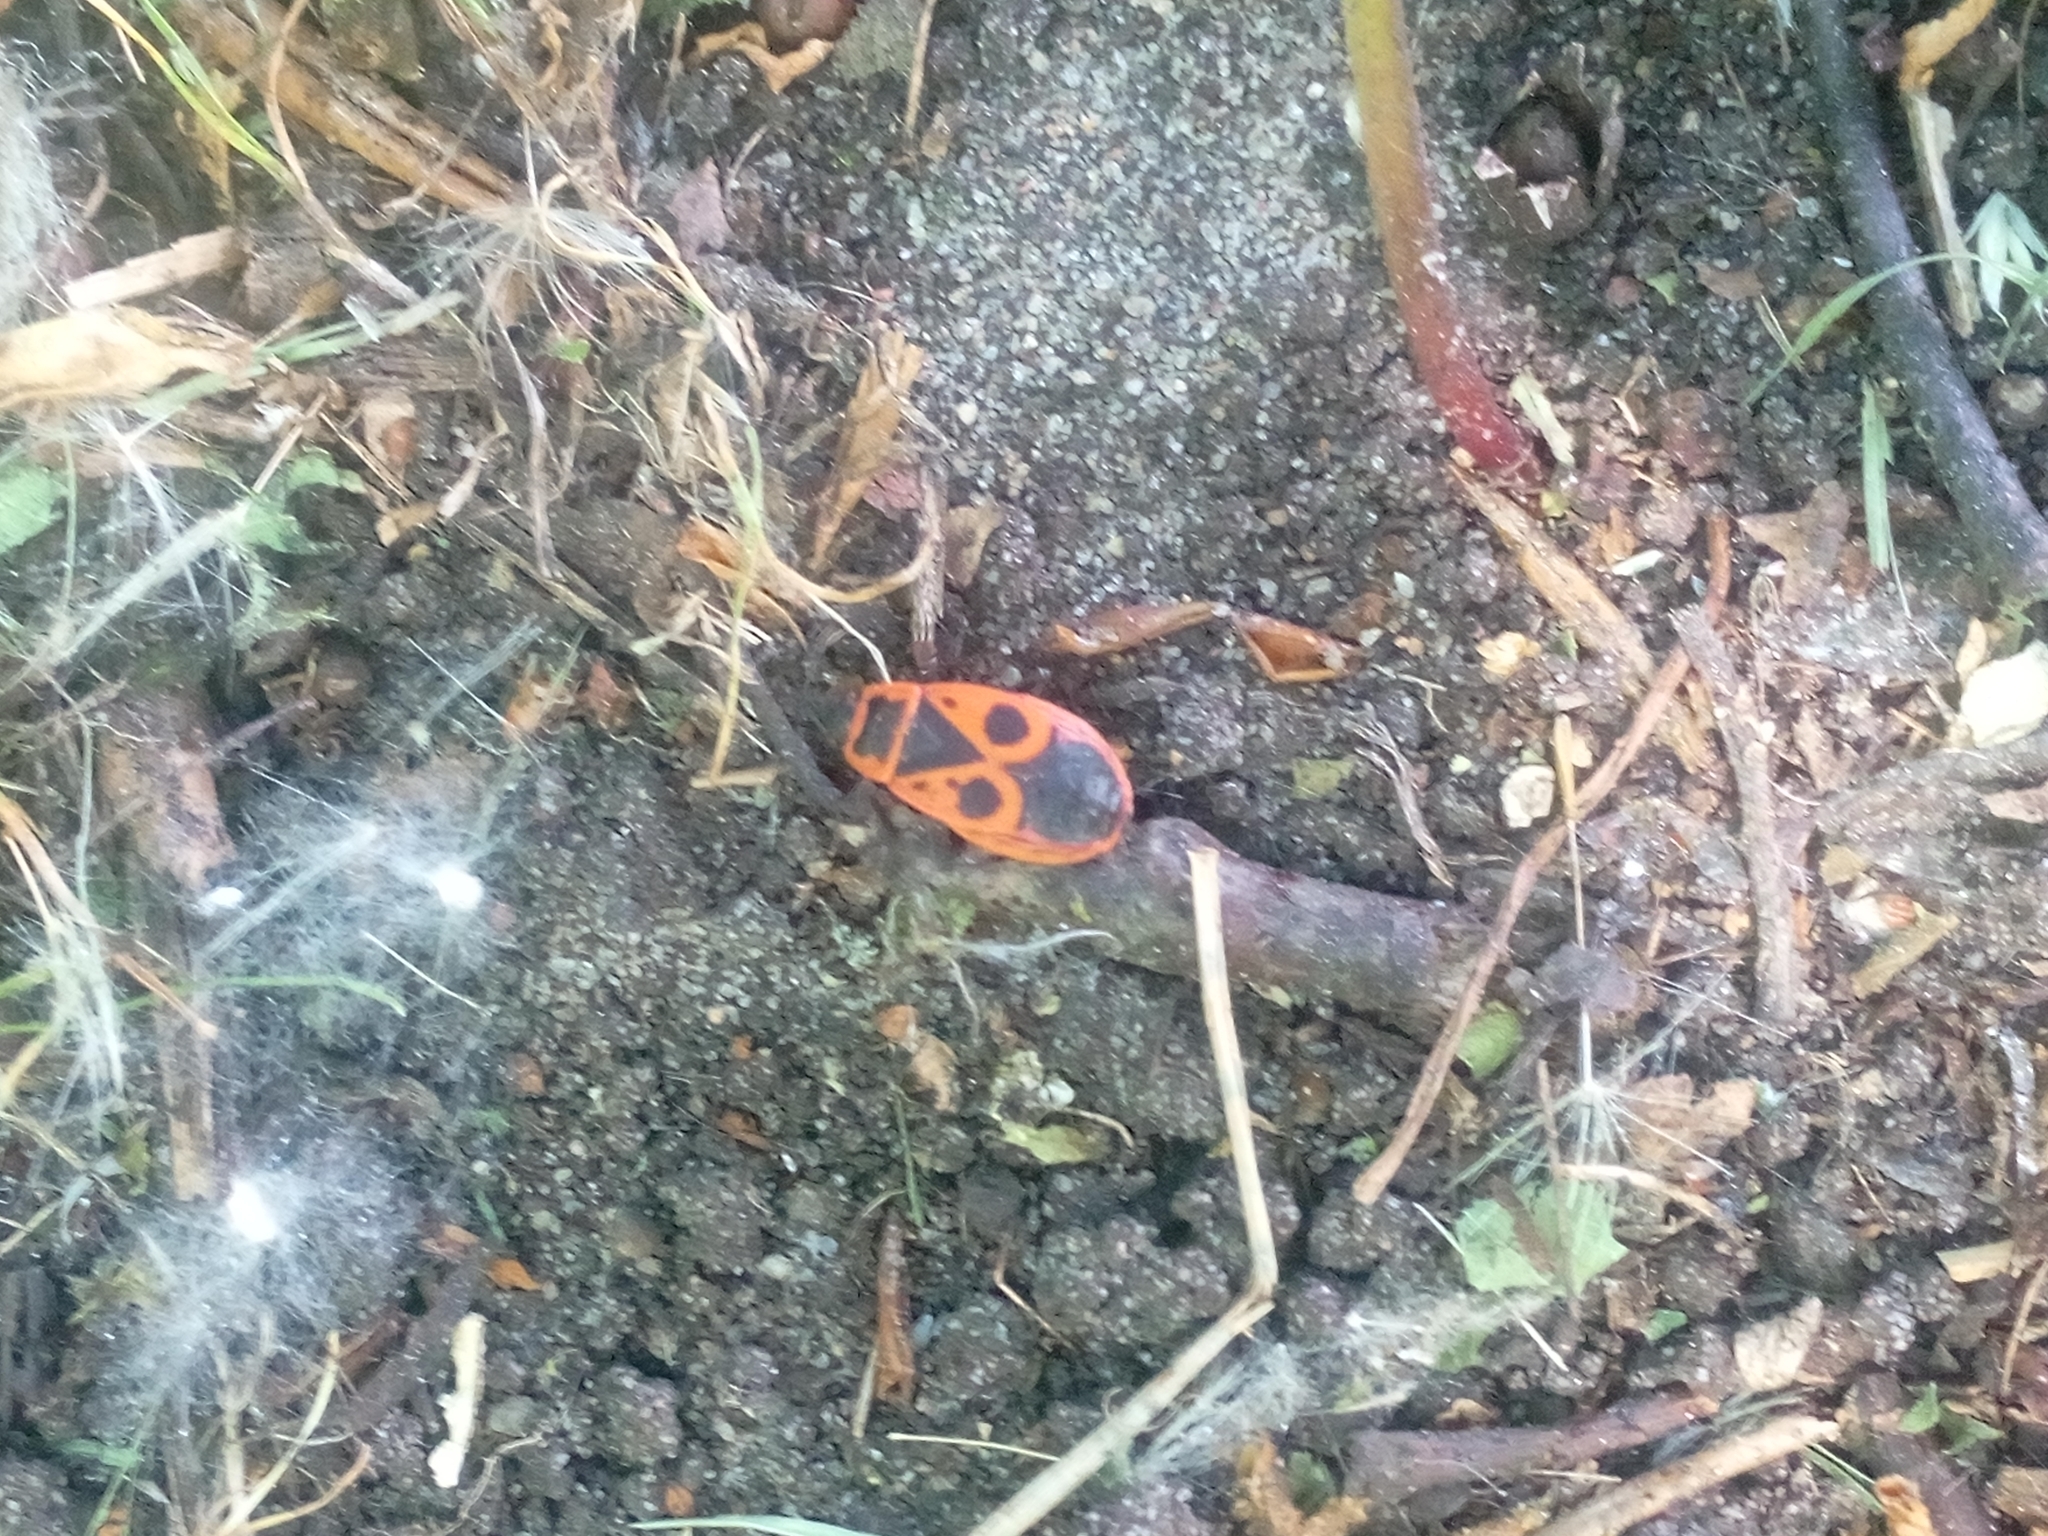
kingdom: Animalia
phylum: Arthropoda
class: Insecta
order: Hemiptera
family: Pyrrhocoridae
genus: Pyrrhocoris
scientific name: Pyrrhocoris apterus
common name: Firebug
